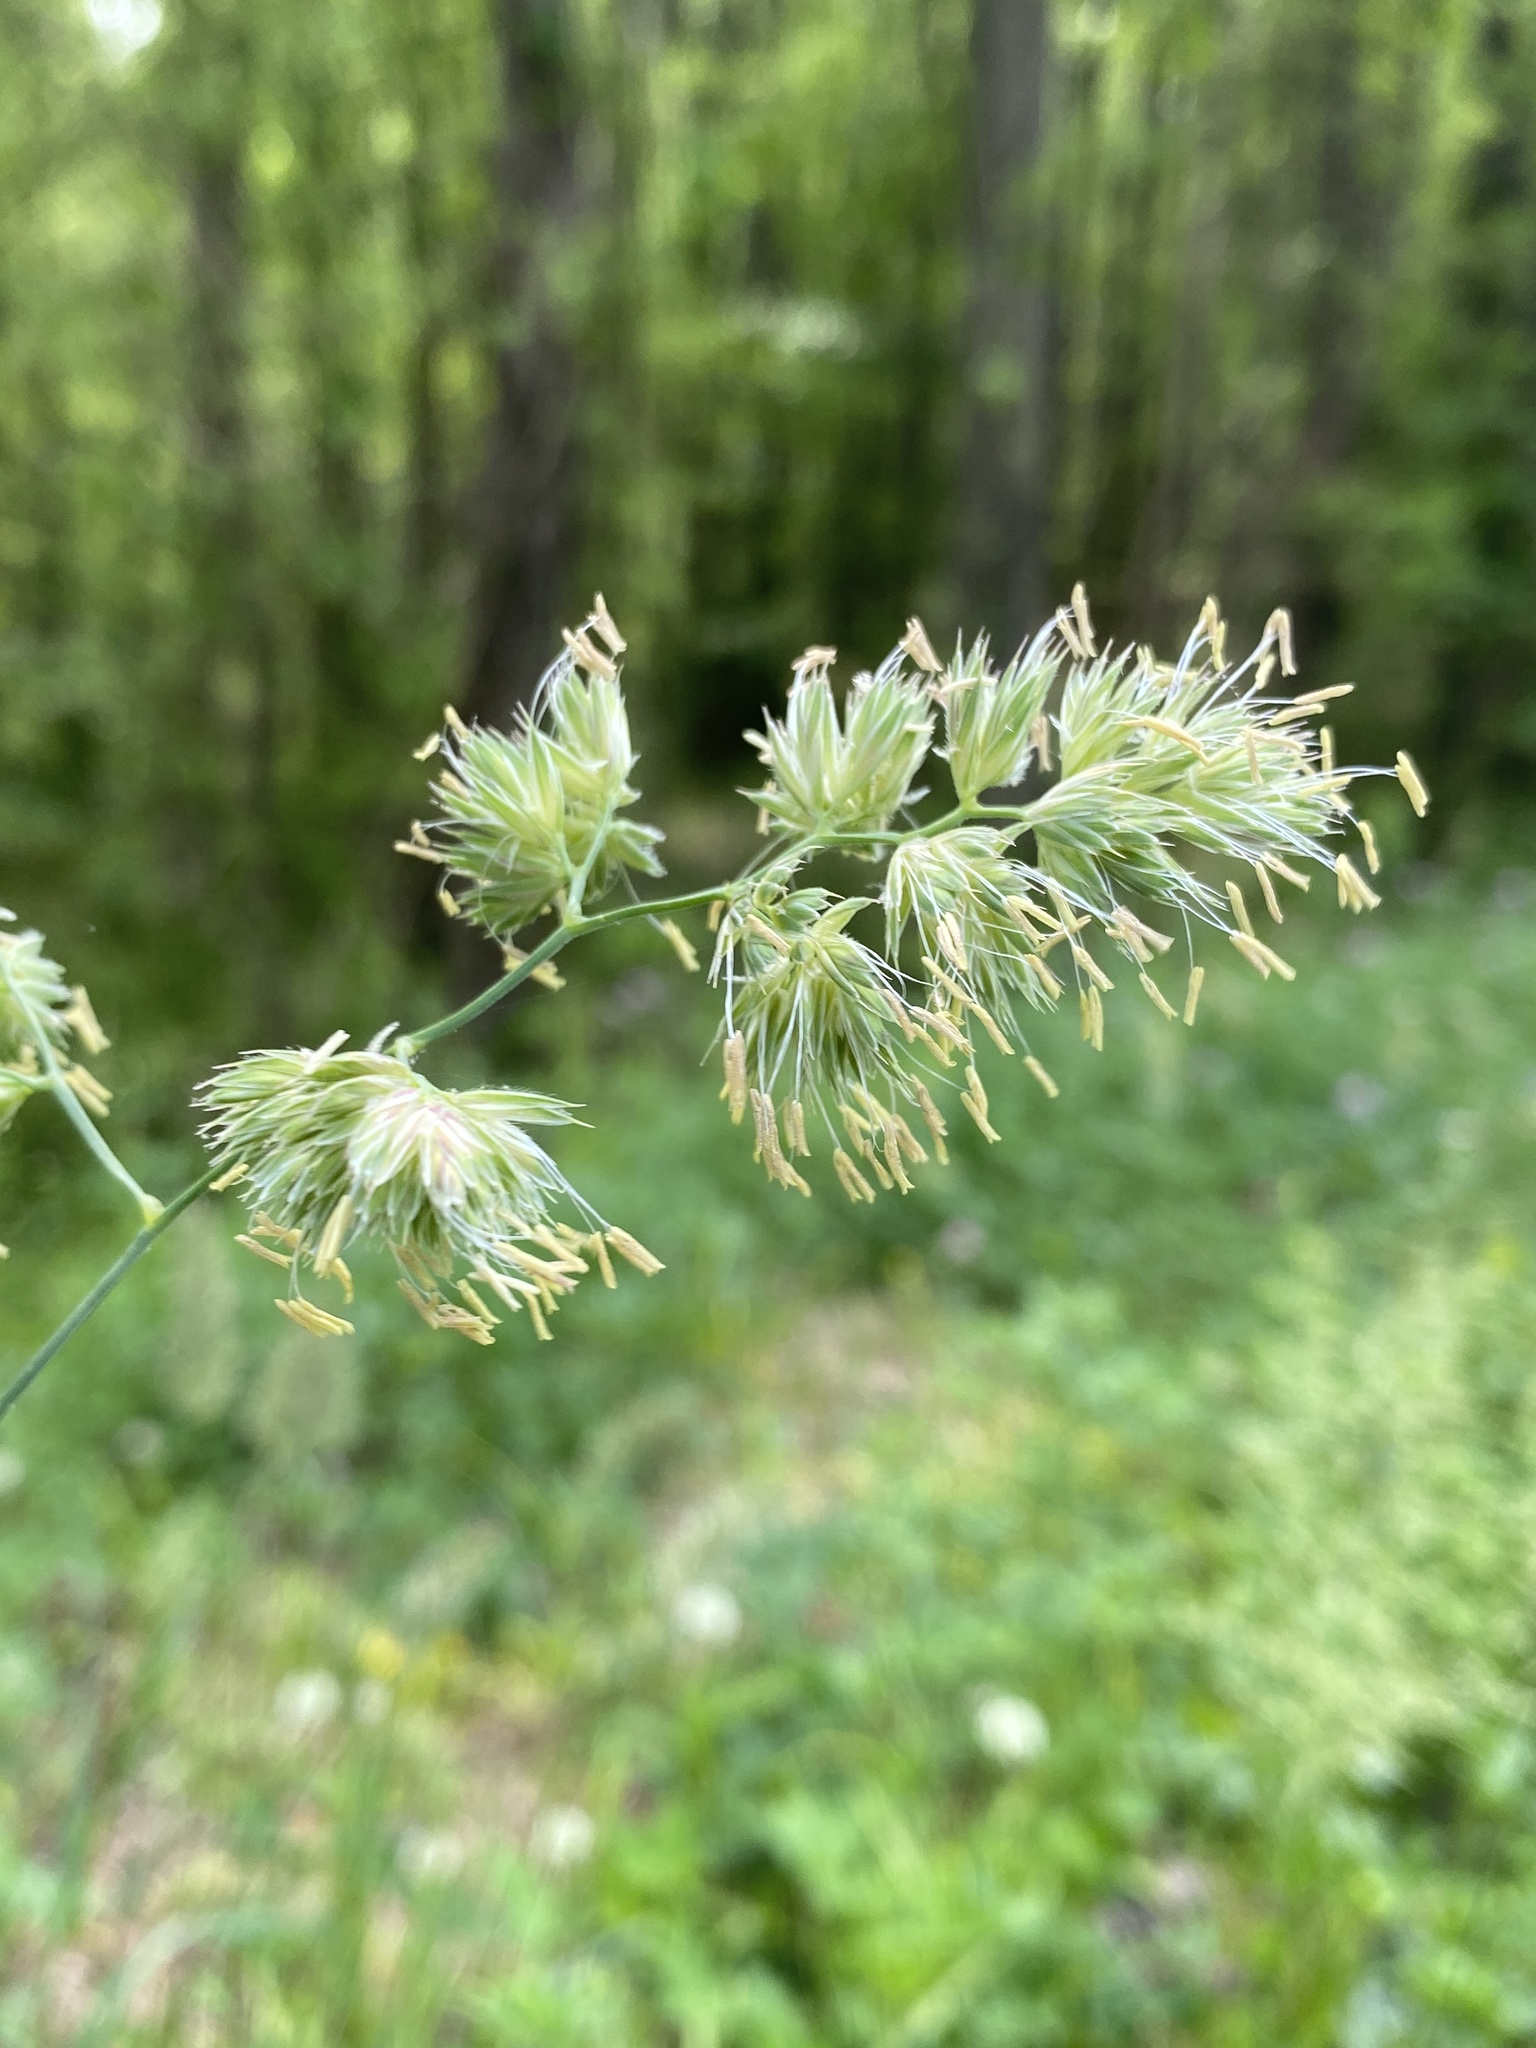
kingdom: Plantae
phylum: Tracheophyta
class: Liliopsida
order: Poales
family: Poaceae
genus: Dactylis
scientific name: Dactylis glomerata
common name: Orchardgrass
